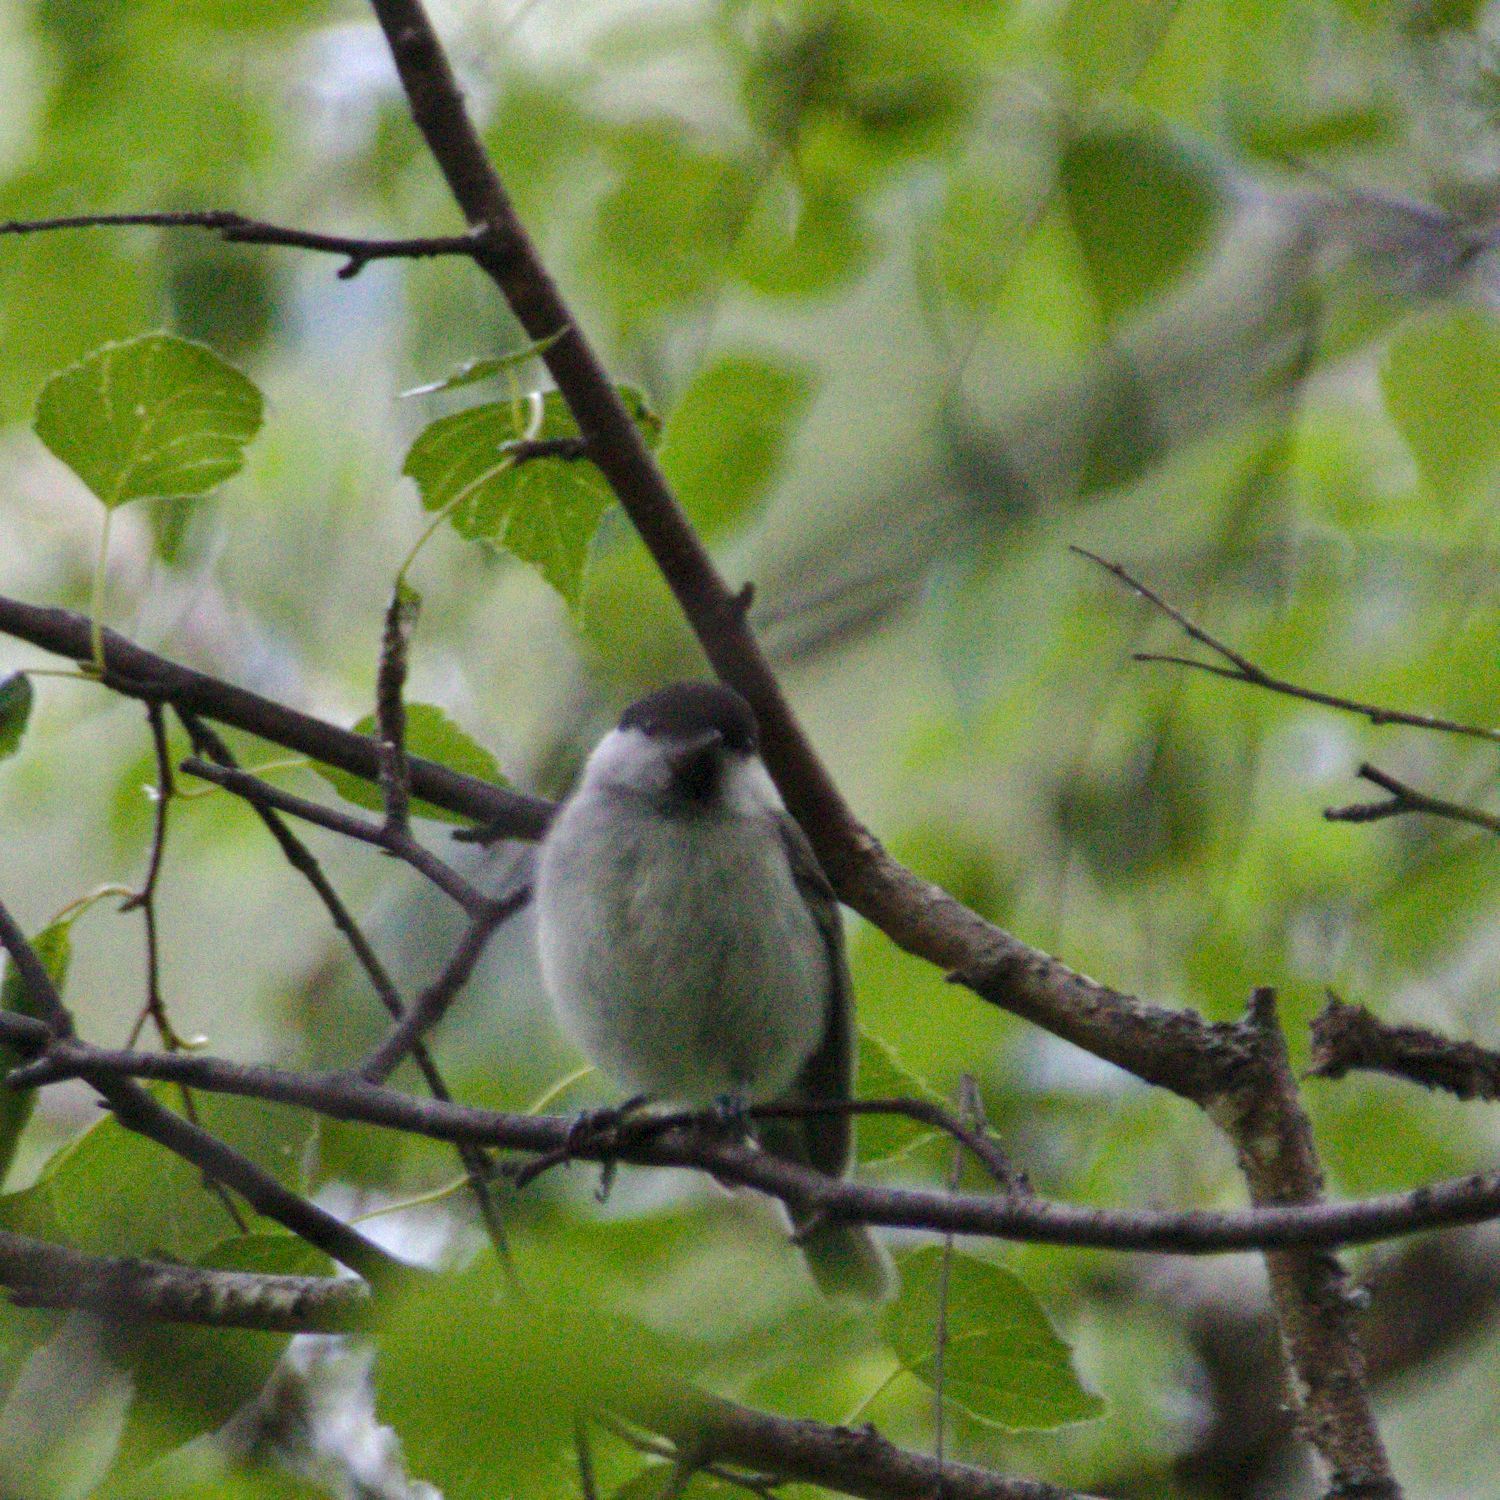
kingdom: Animalia
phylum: Chordata
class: Aves
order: Passeriformes
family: Paridae
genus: Poecile
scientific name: Poecile montanus
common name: Willow tit
